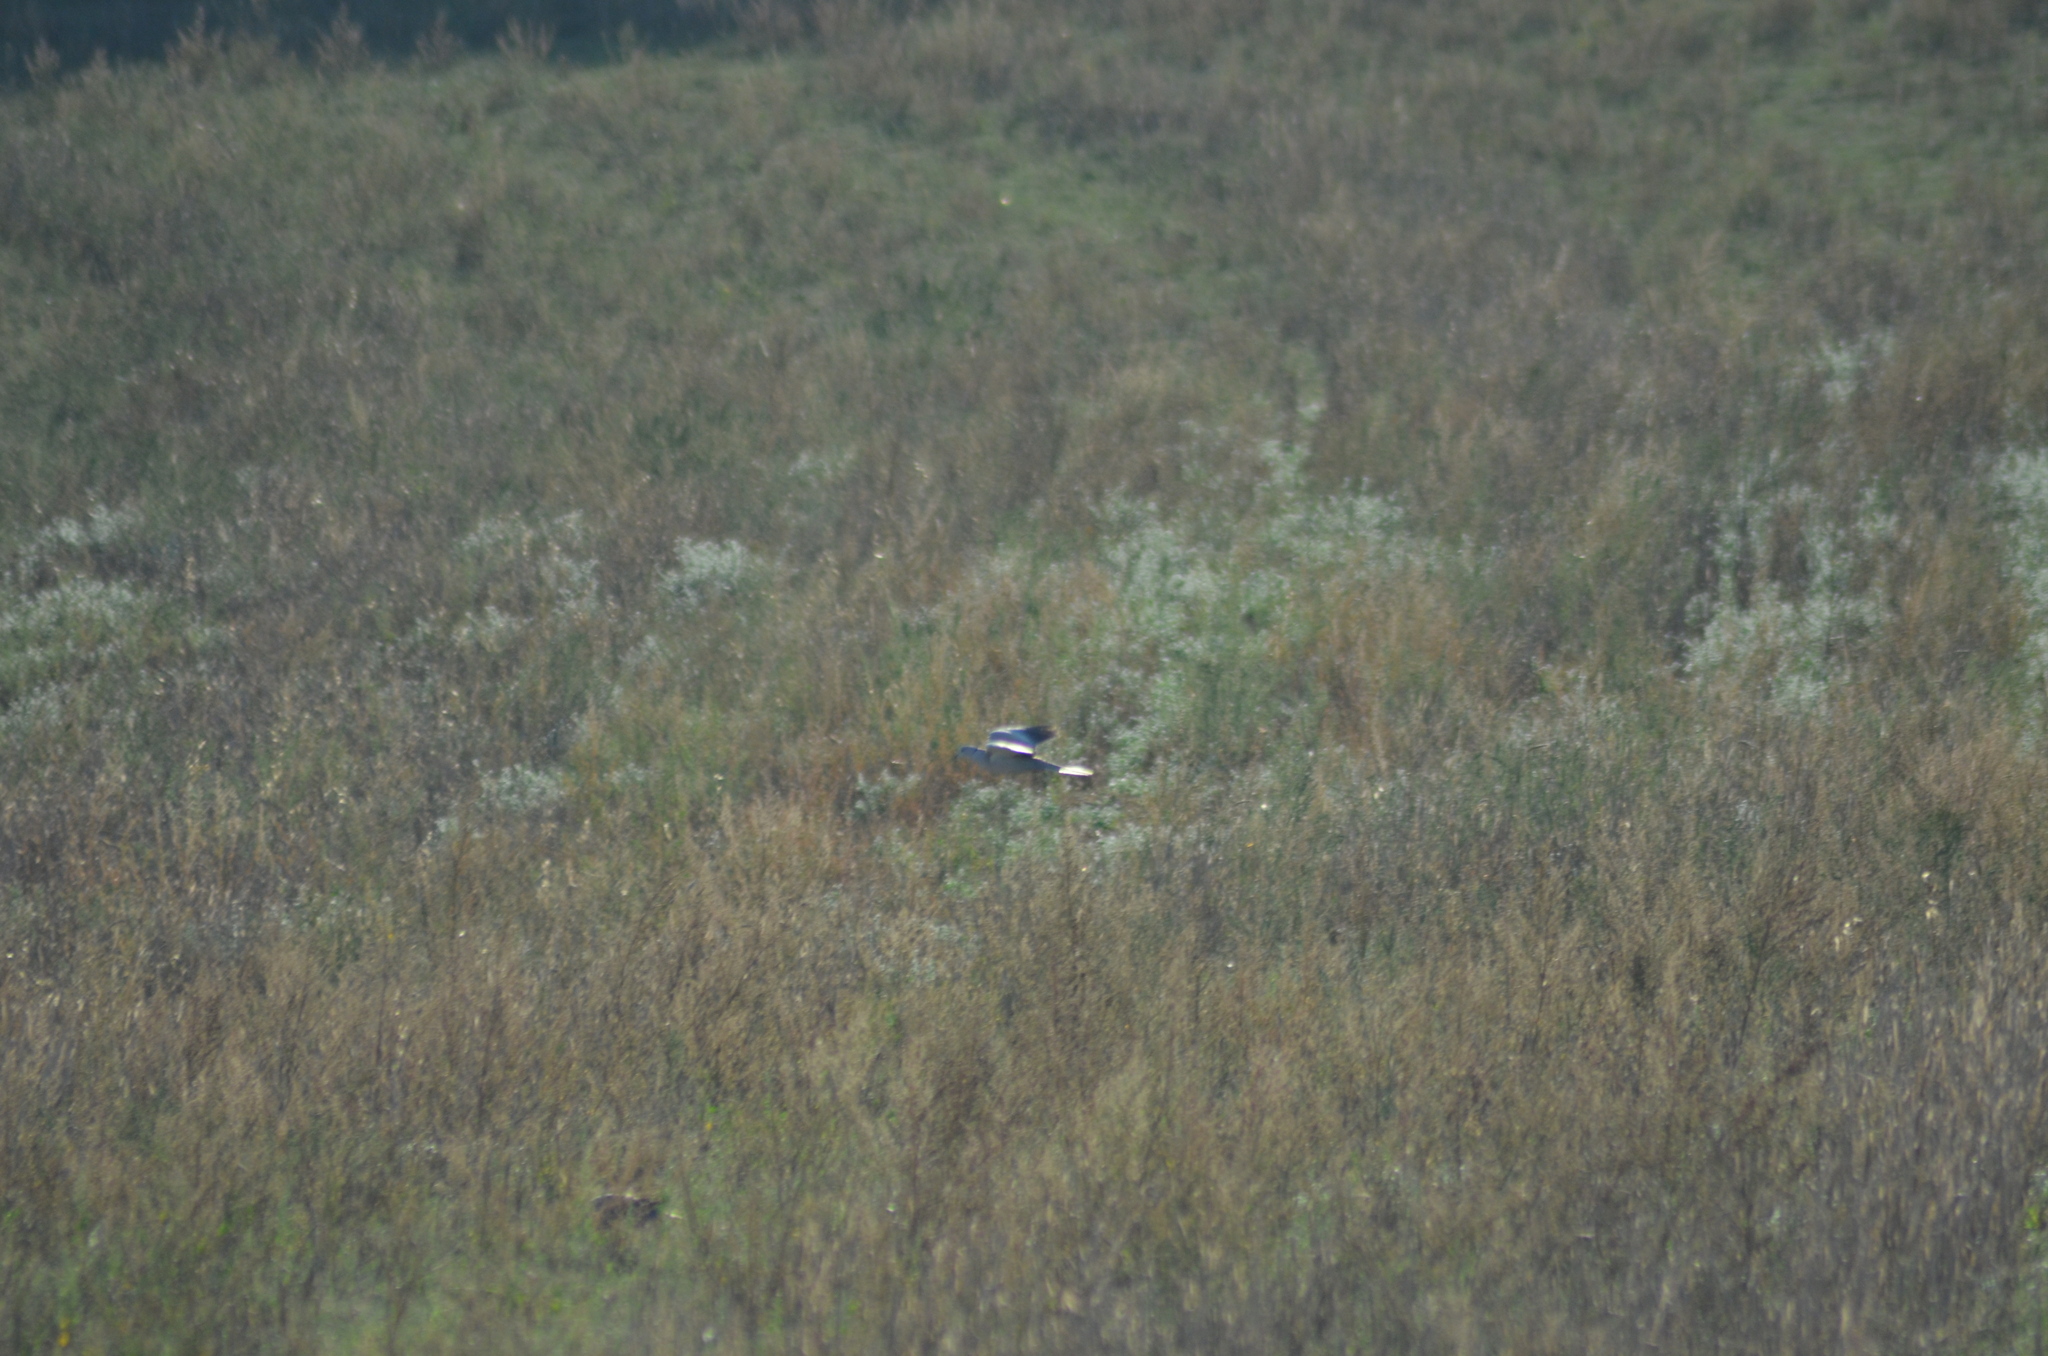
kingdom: Animalia
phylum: Chordata
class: Aves
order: Columbiformes
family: Columbidae
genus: Streptopelia
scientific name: Streptopelia decaocto
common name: Eurasian collared dove
